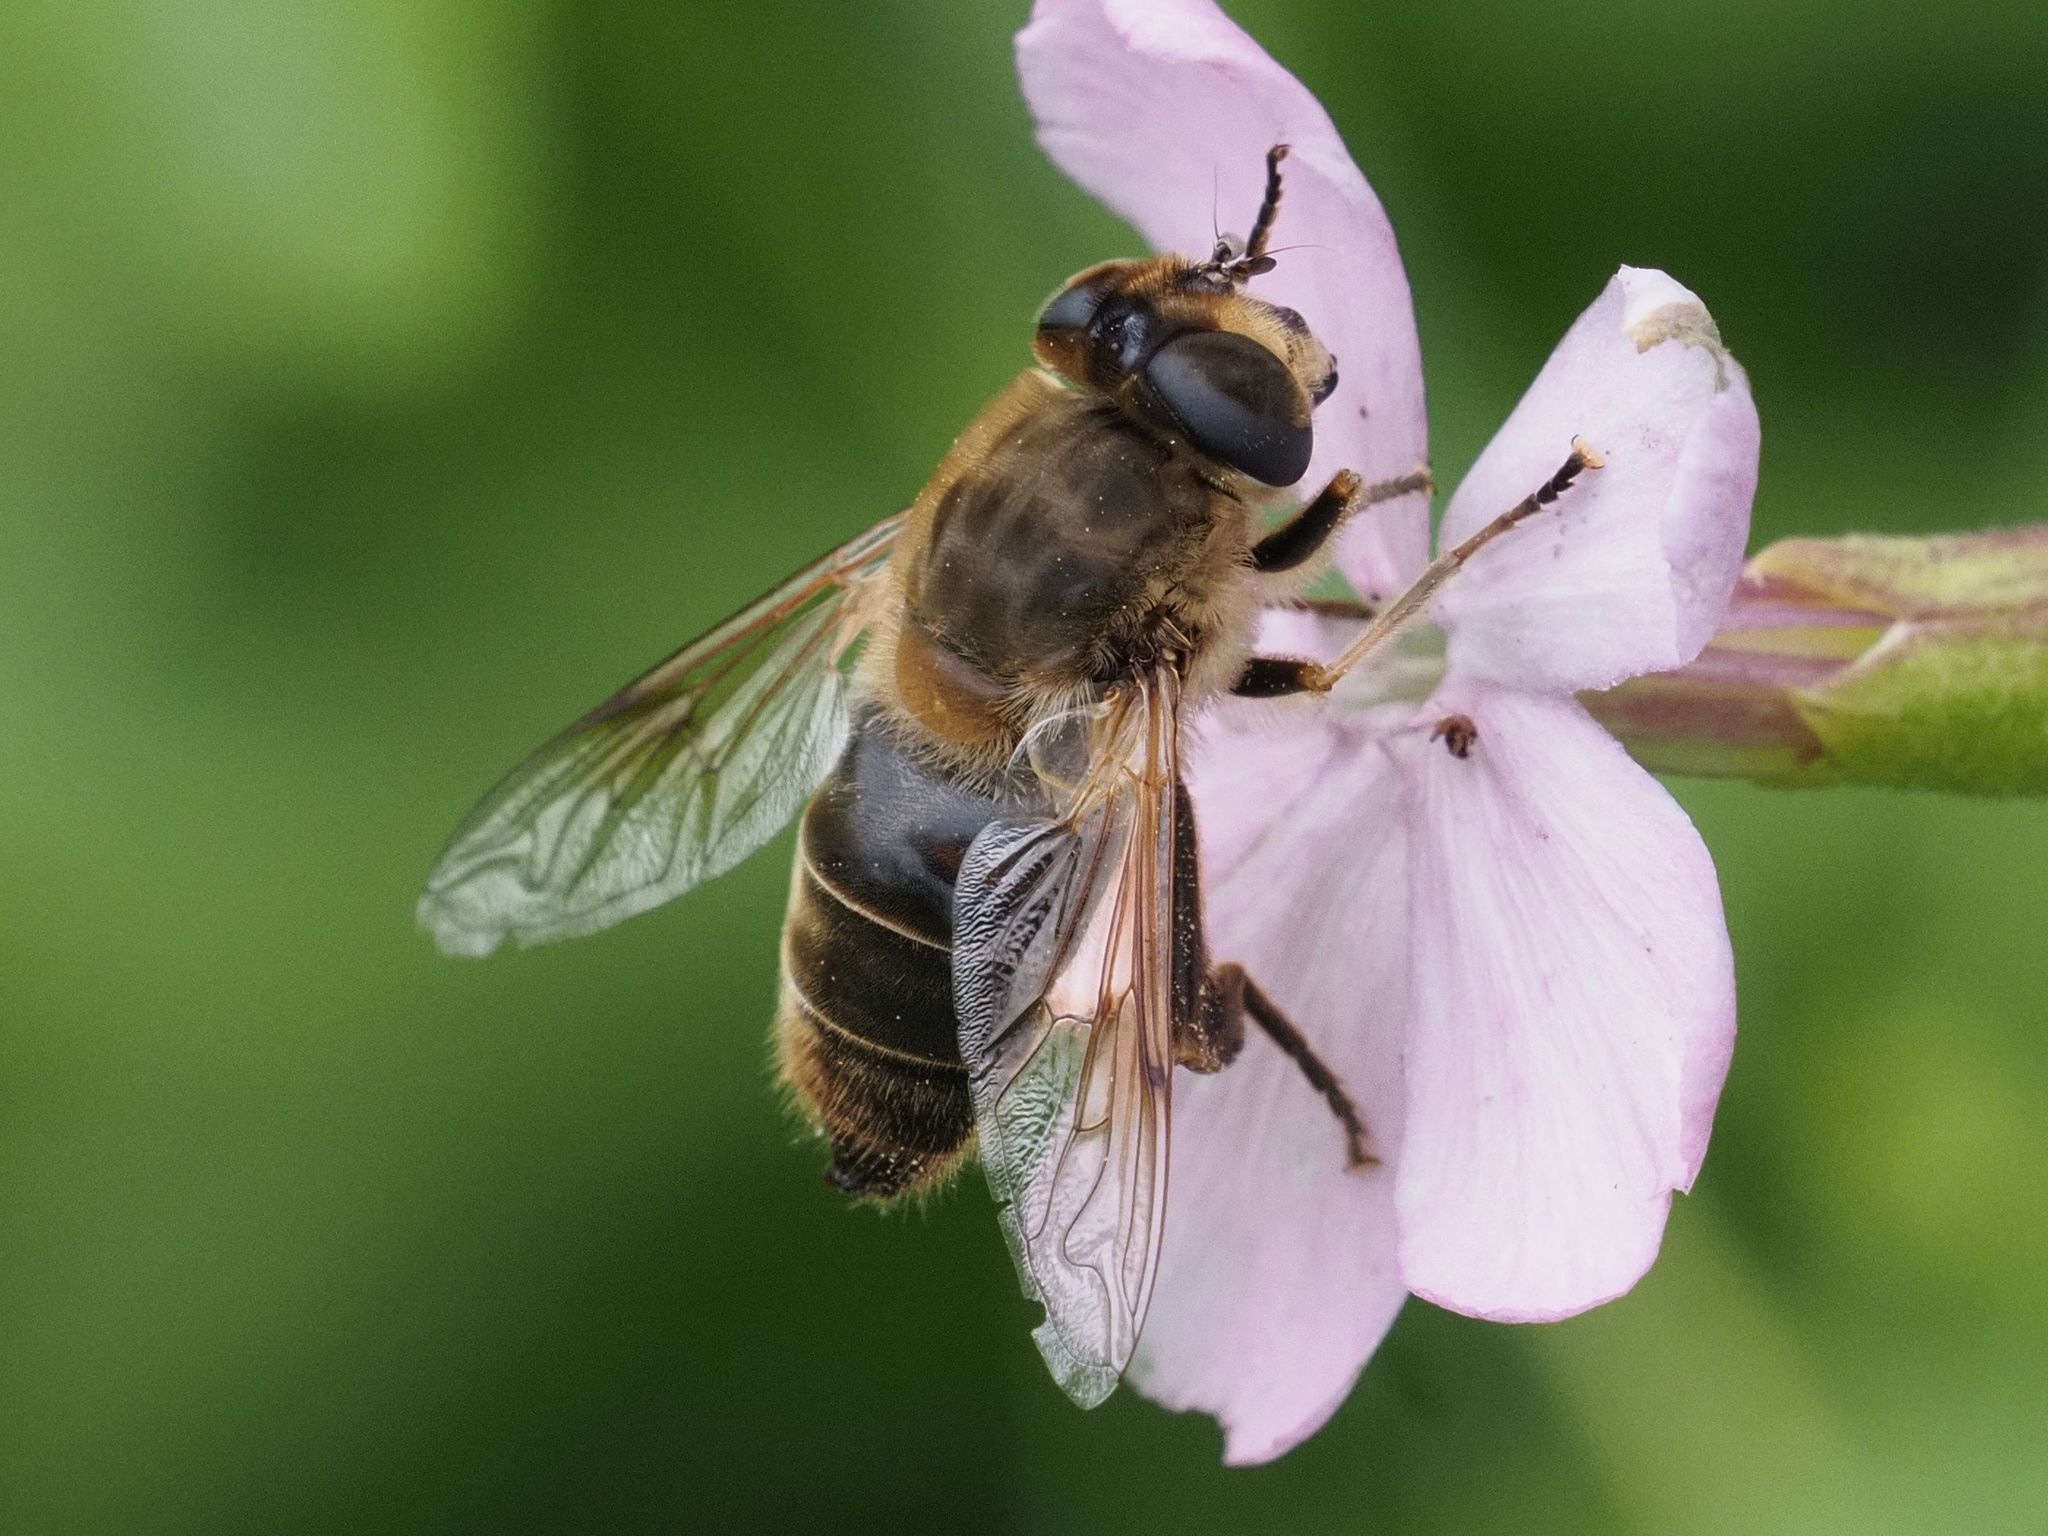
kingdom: Animalia
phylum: Arthropoda
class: Insecta
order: Diptera
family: Syrphidae
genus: Eristalis
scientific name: Eristalis tenax
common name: Drone fly
